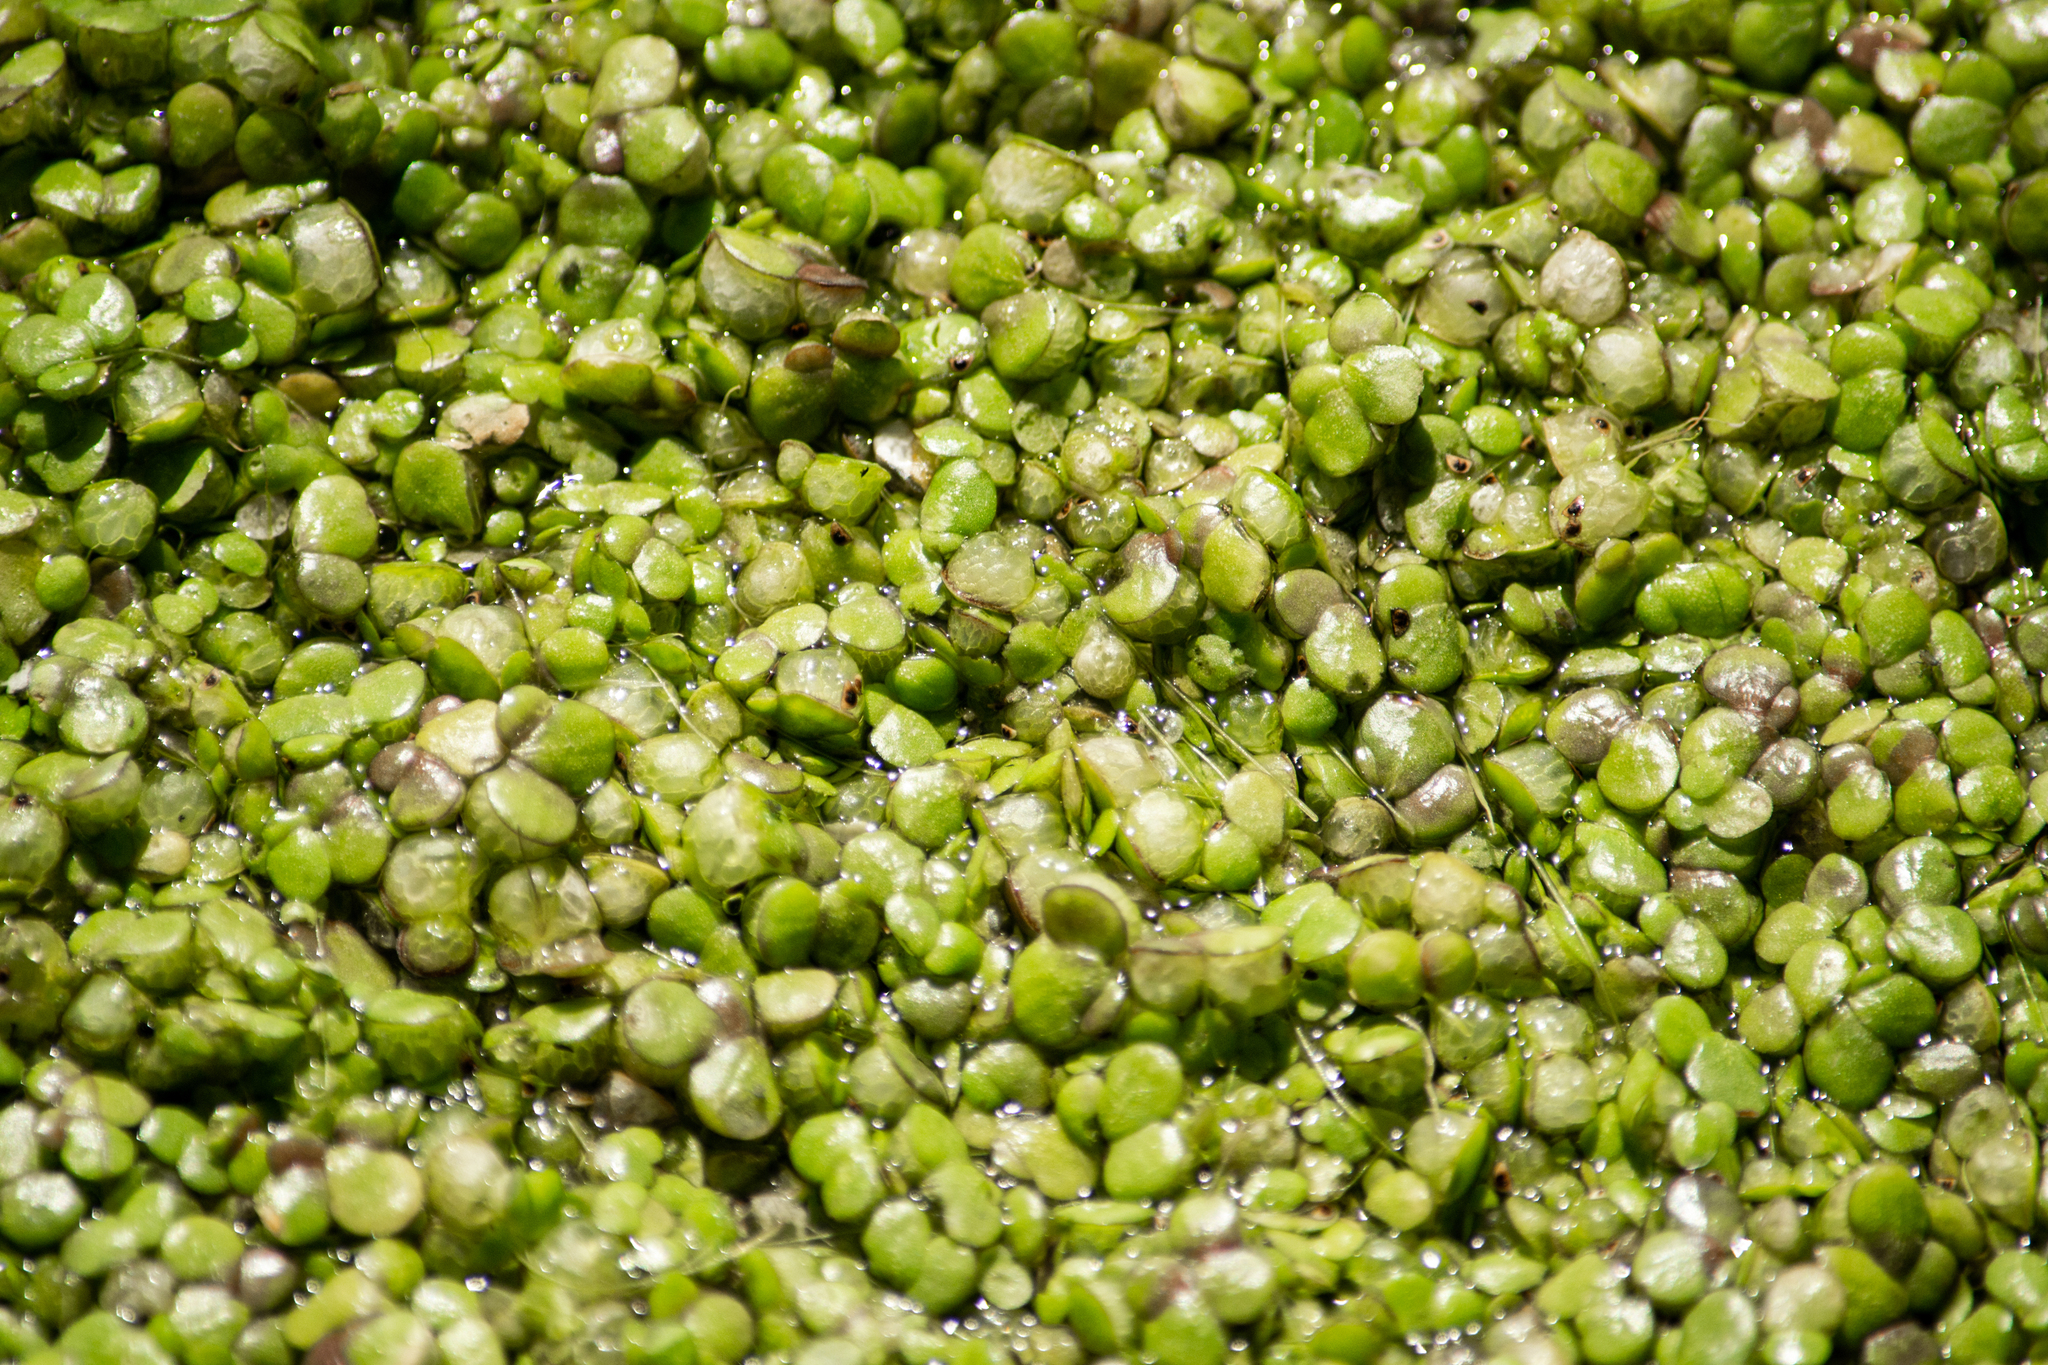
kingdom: Plantae
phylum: Tracheophyta
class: Liliopsida
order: Alismatales
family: Araceae
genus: Lemna
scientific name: Lemna gibba
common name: Fat duckweed
